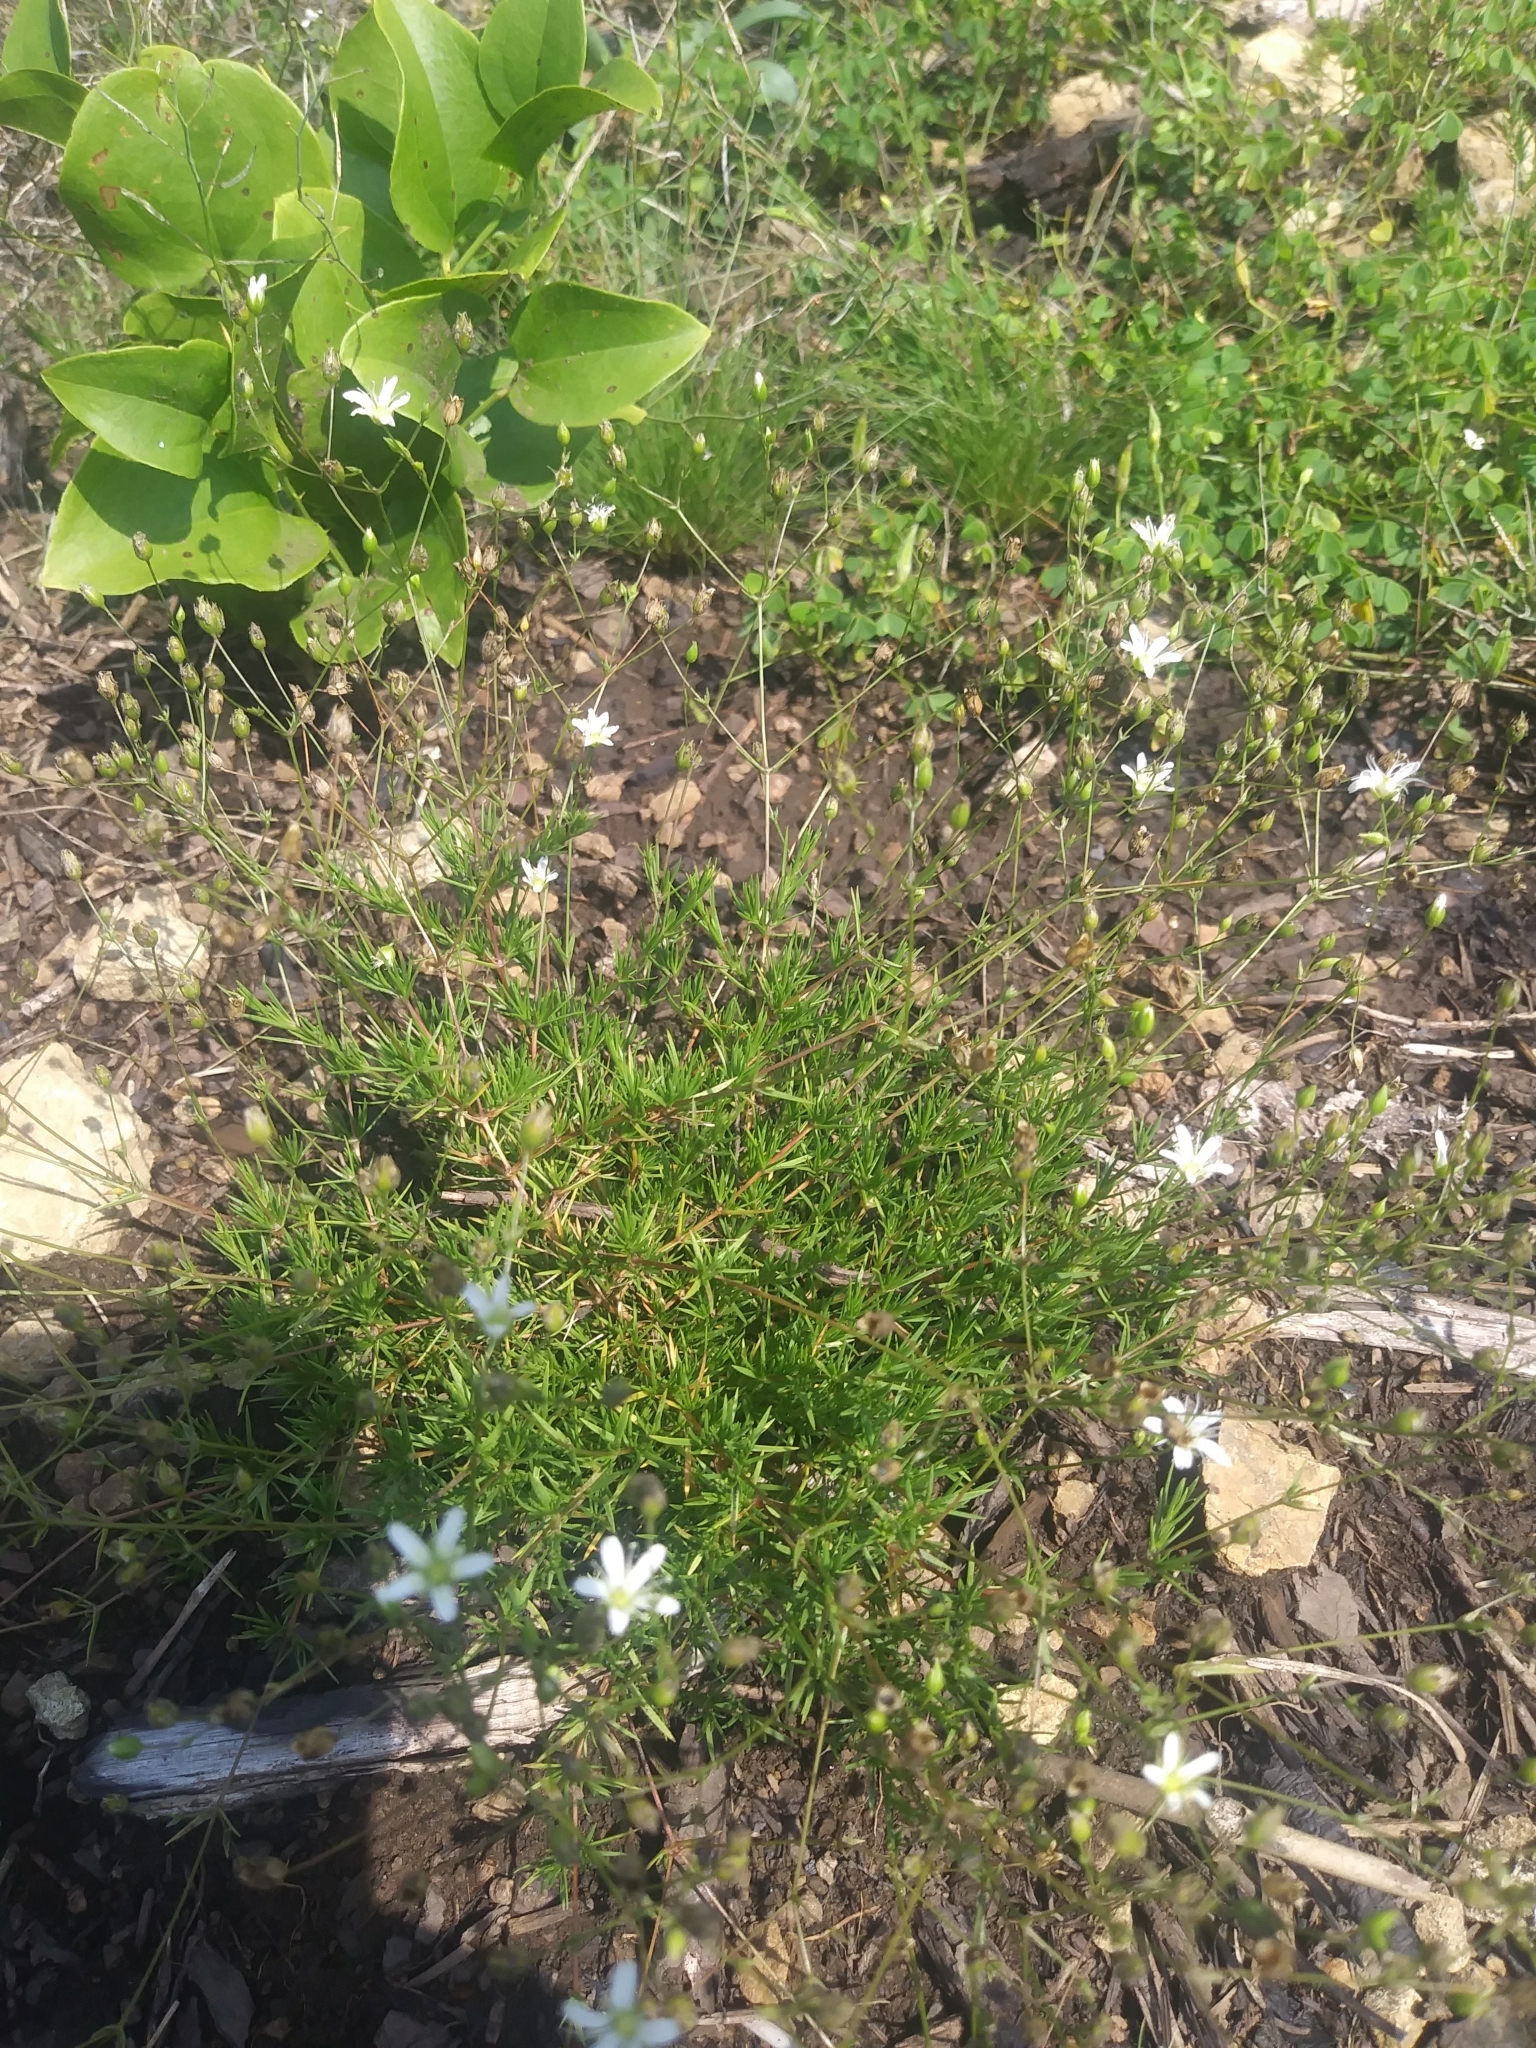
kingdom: Plantae
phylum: Tracheophyta
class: Magnoliopsida
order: Caryophyllales
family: Caryophyllaceae
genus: Sabulina
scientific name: Sabulina michauxii
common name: Michaux's stitchwort
